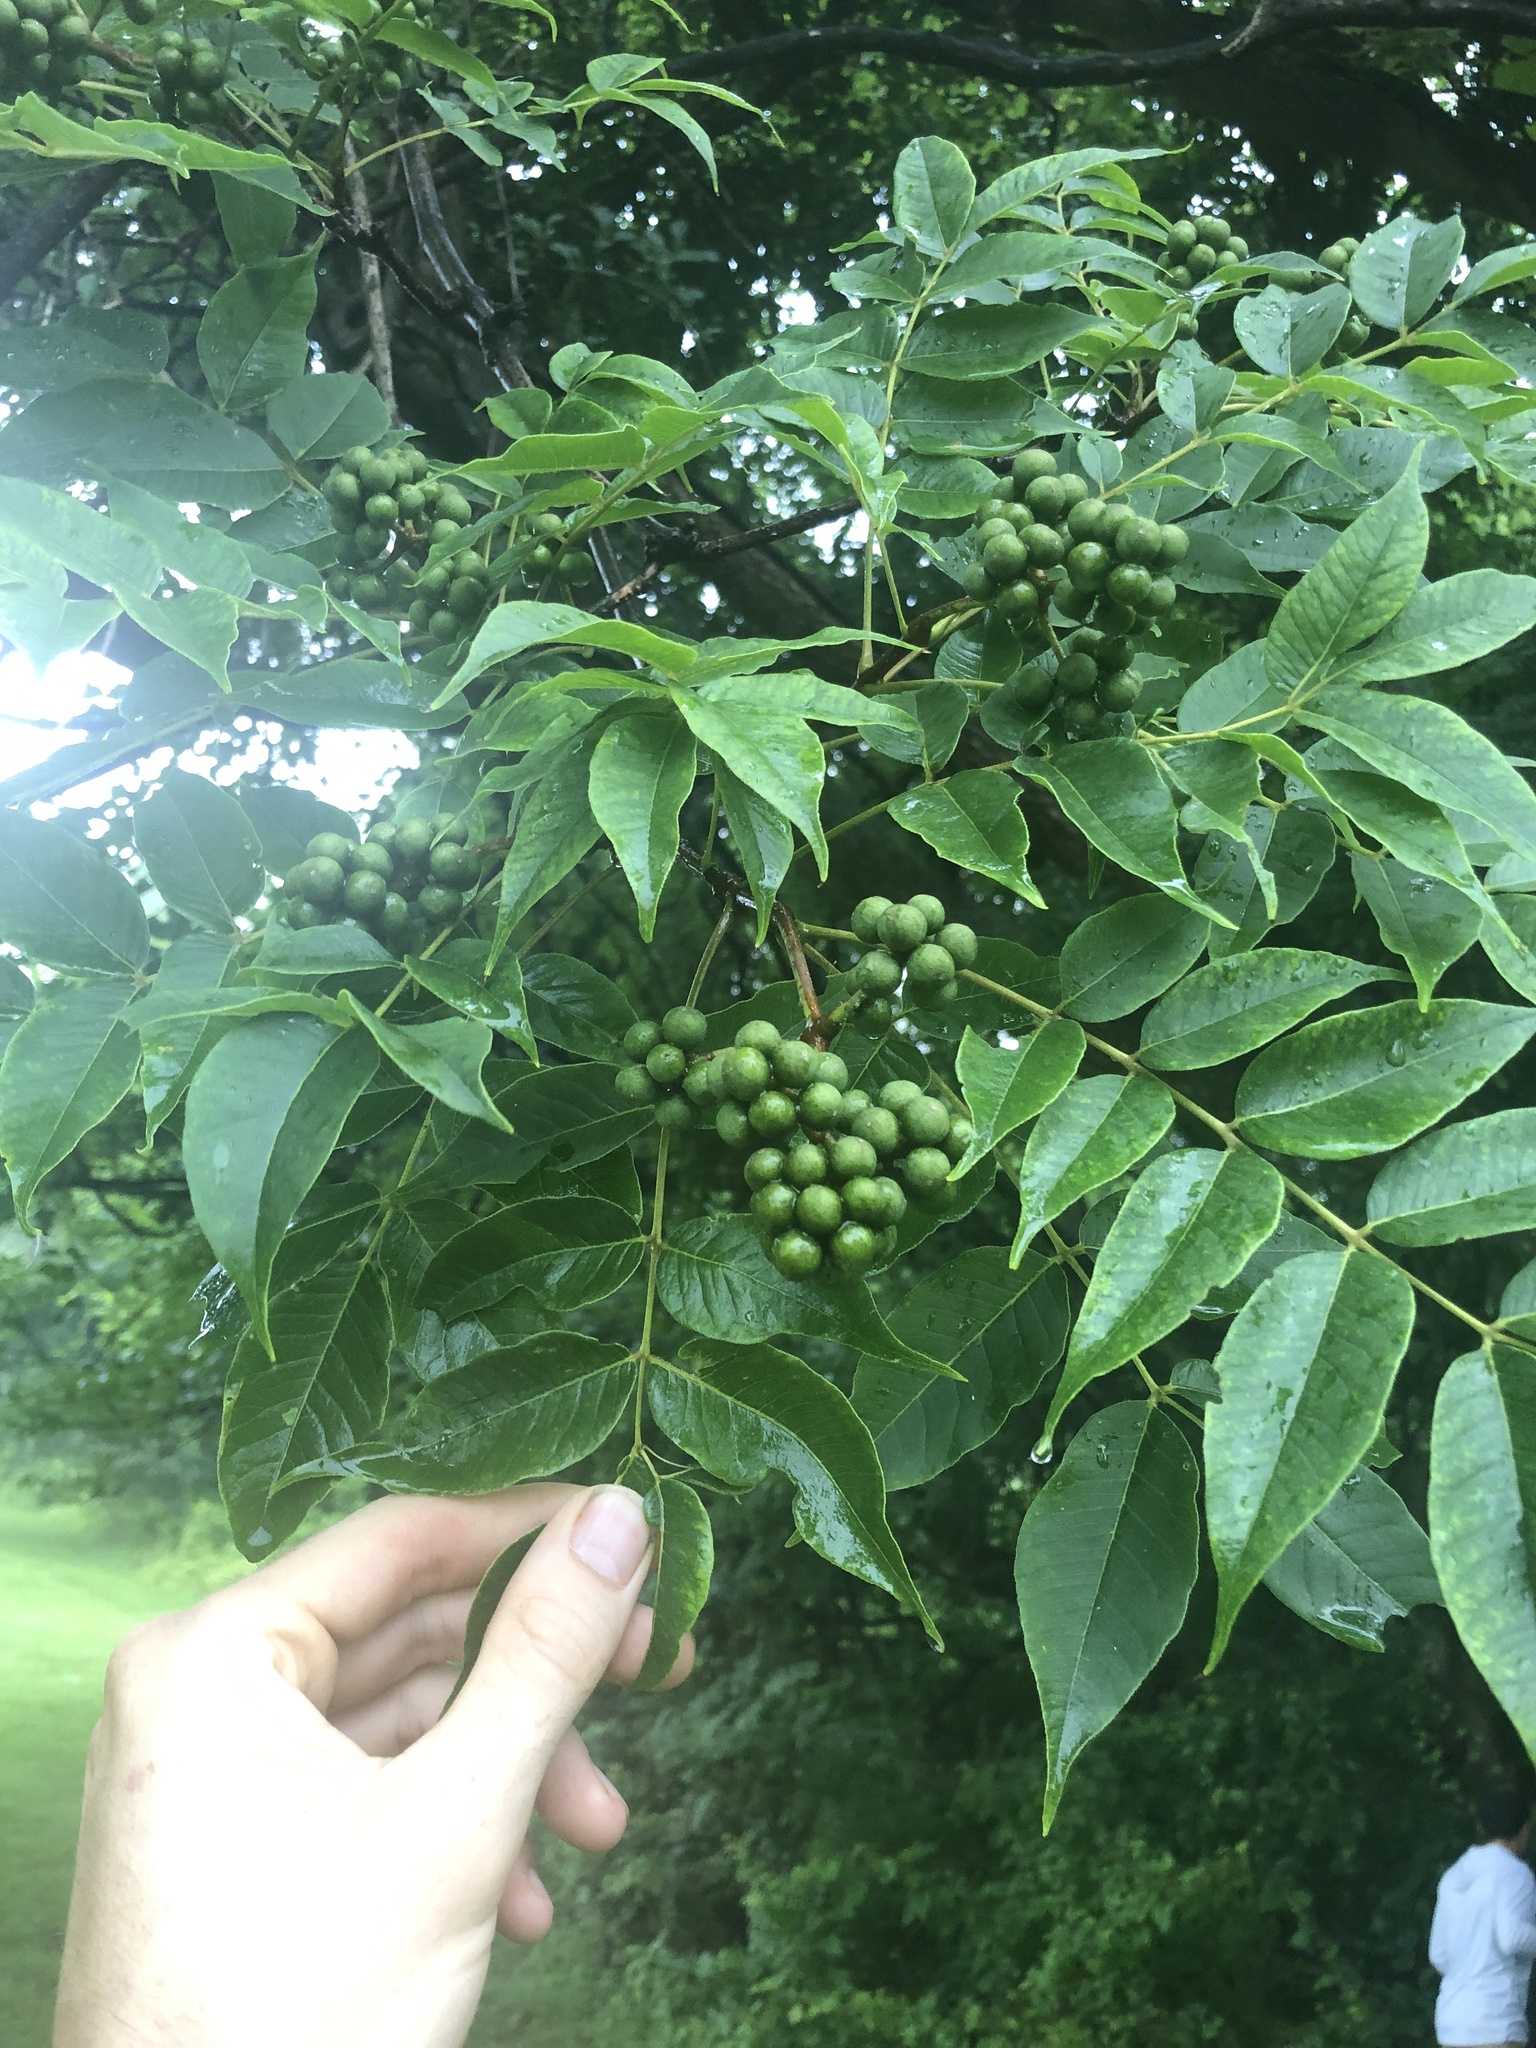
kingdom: Plantae
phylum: Tracheophyta
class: Magnoliopsida
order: Sapindales
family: Rutaceae
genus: Phellodendron
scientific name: Phellodendron amurense
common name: Amur corktree
